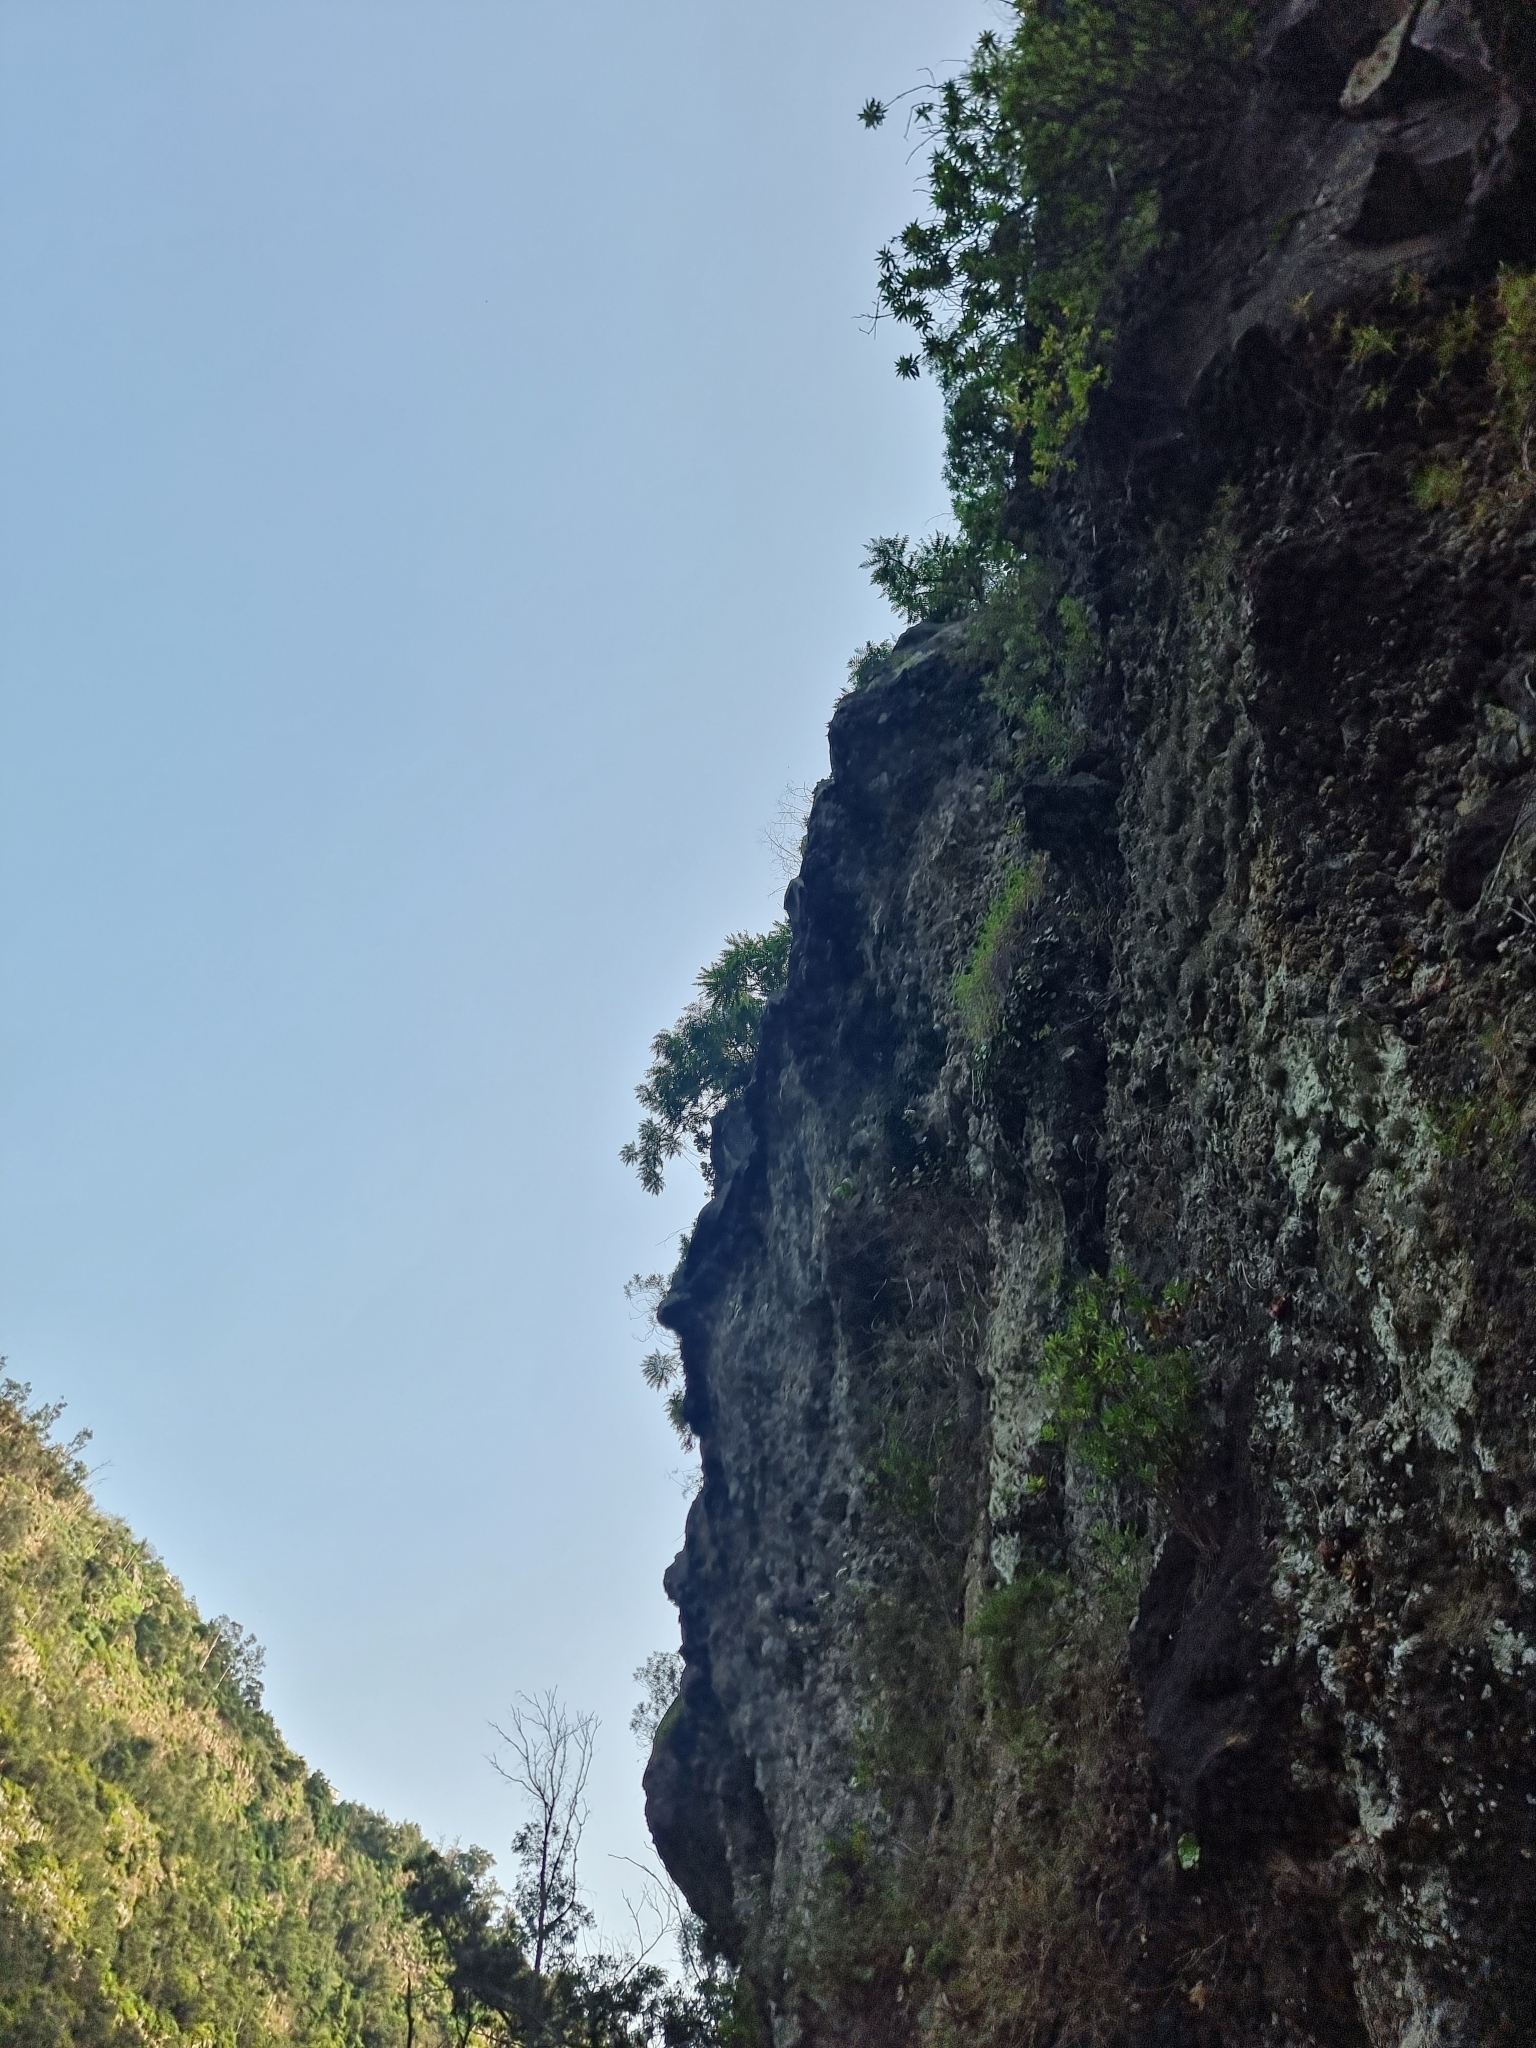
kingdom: Plantae
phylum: Tracheophyta
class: Magnoliopsida
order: Asterales
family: Asteraceae
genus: Sonchus
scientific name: Sonchus pinnatus
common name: Wing-leaved sow-thistle
